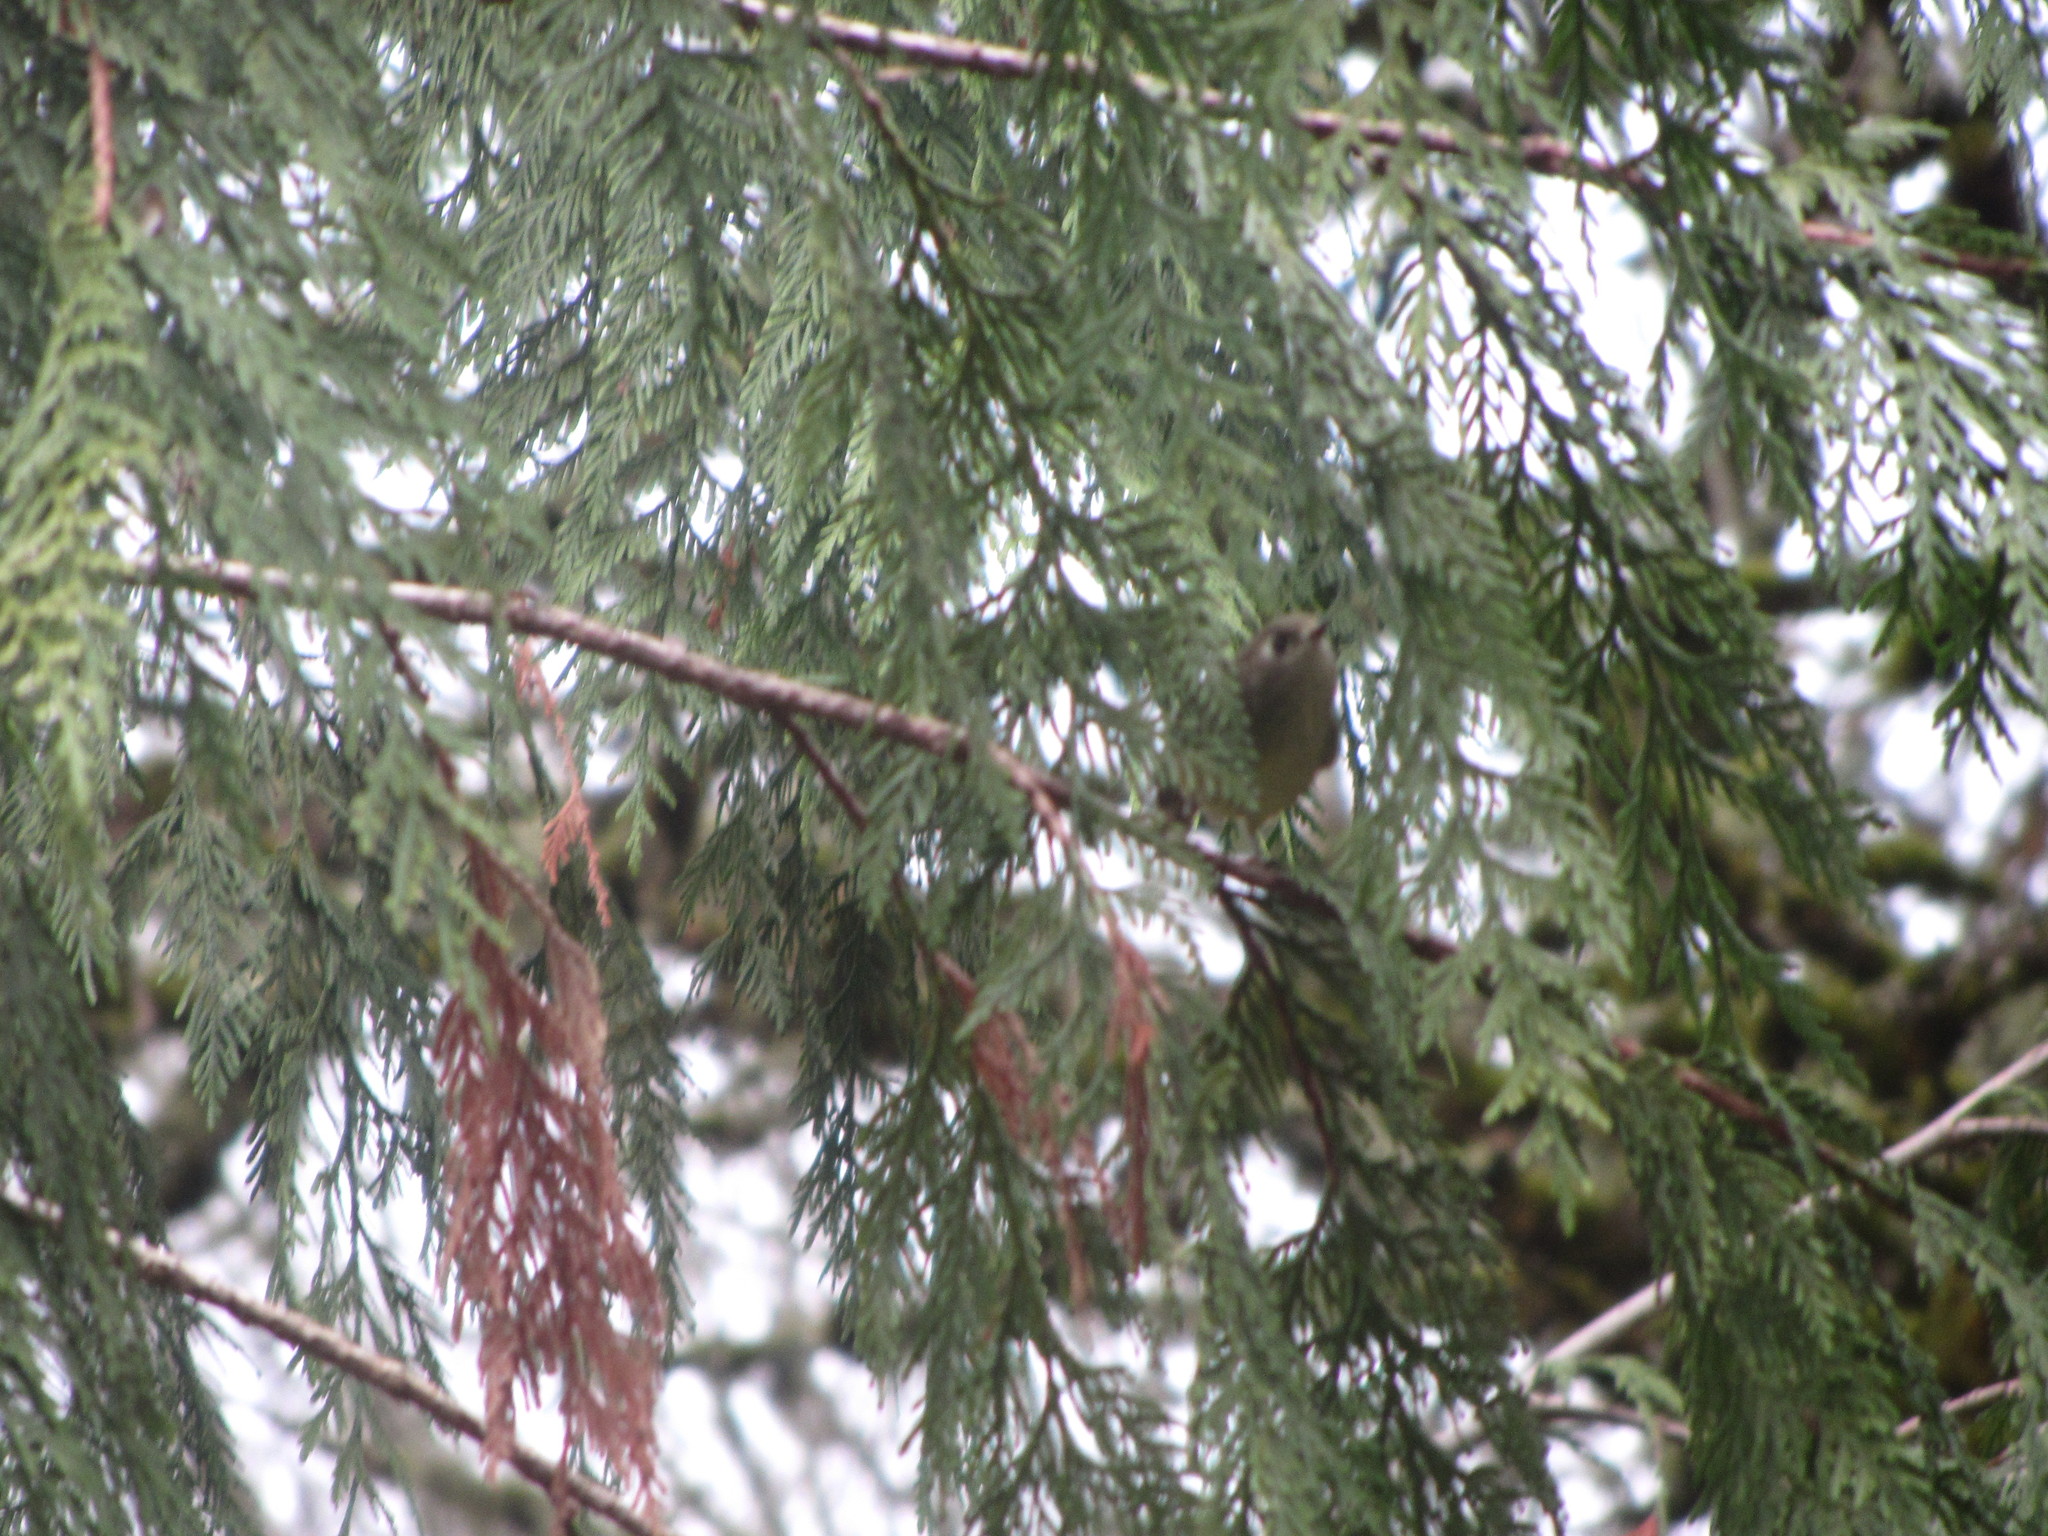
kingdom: Animalia
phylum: Chordata
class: Aves
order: Passeriformes
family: Regulidae
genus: Regulus
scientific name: Regulus calendula
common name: Ruby-crowned kinglet
